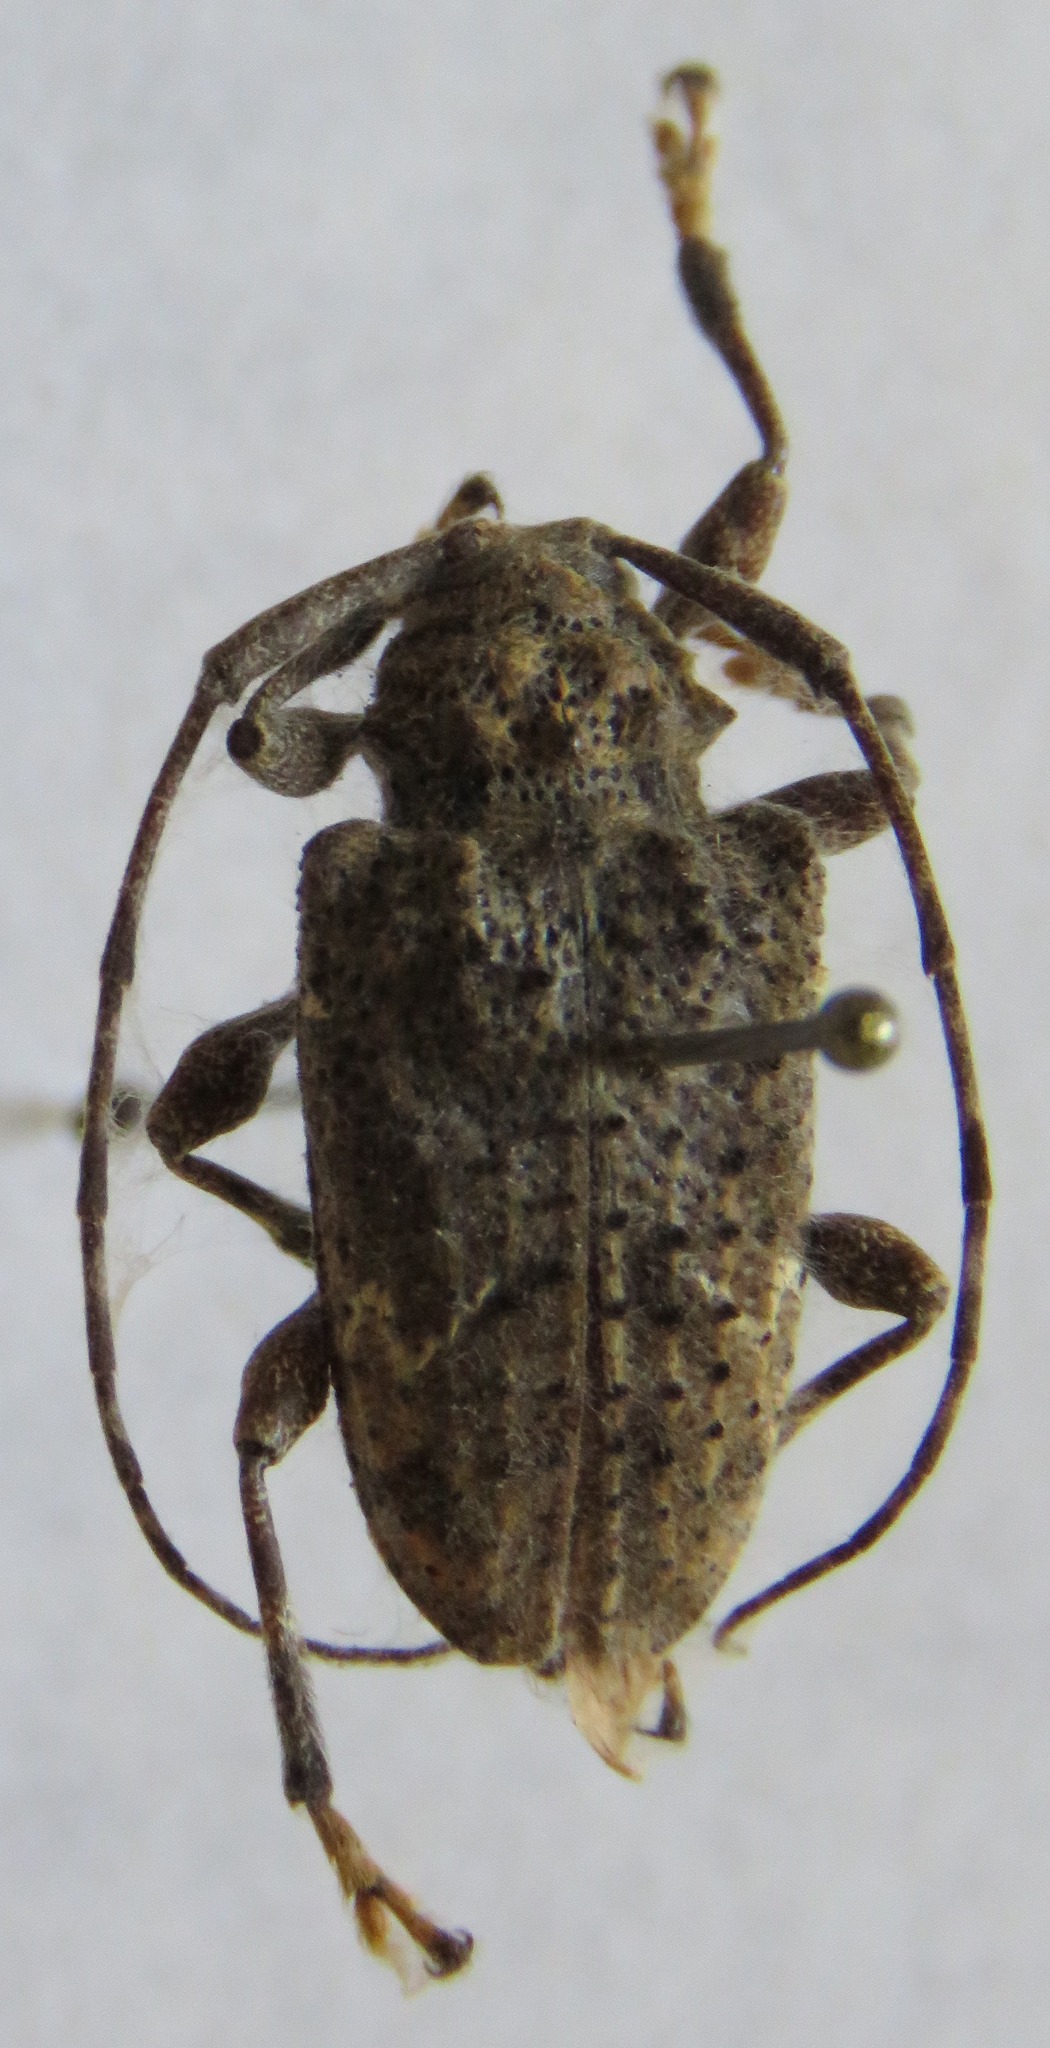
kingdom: Animalia
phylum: Arthropoda
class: Insecta
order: Coleoptera
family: Cerambycidae
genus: Lagocheirus
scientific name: Lagocheirus binumeratus
